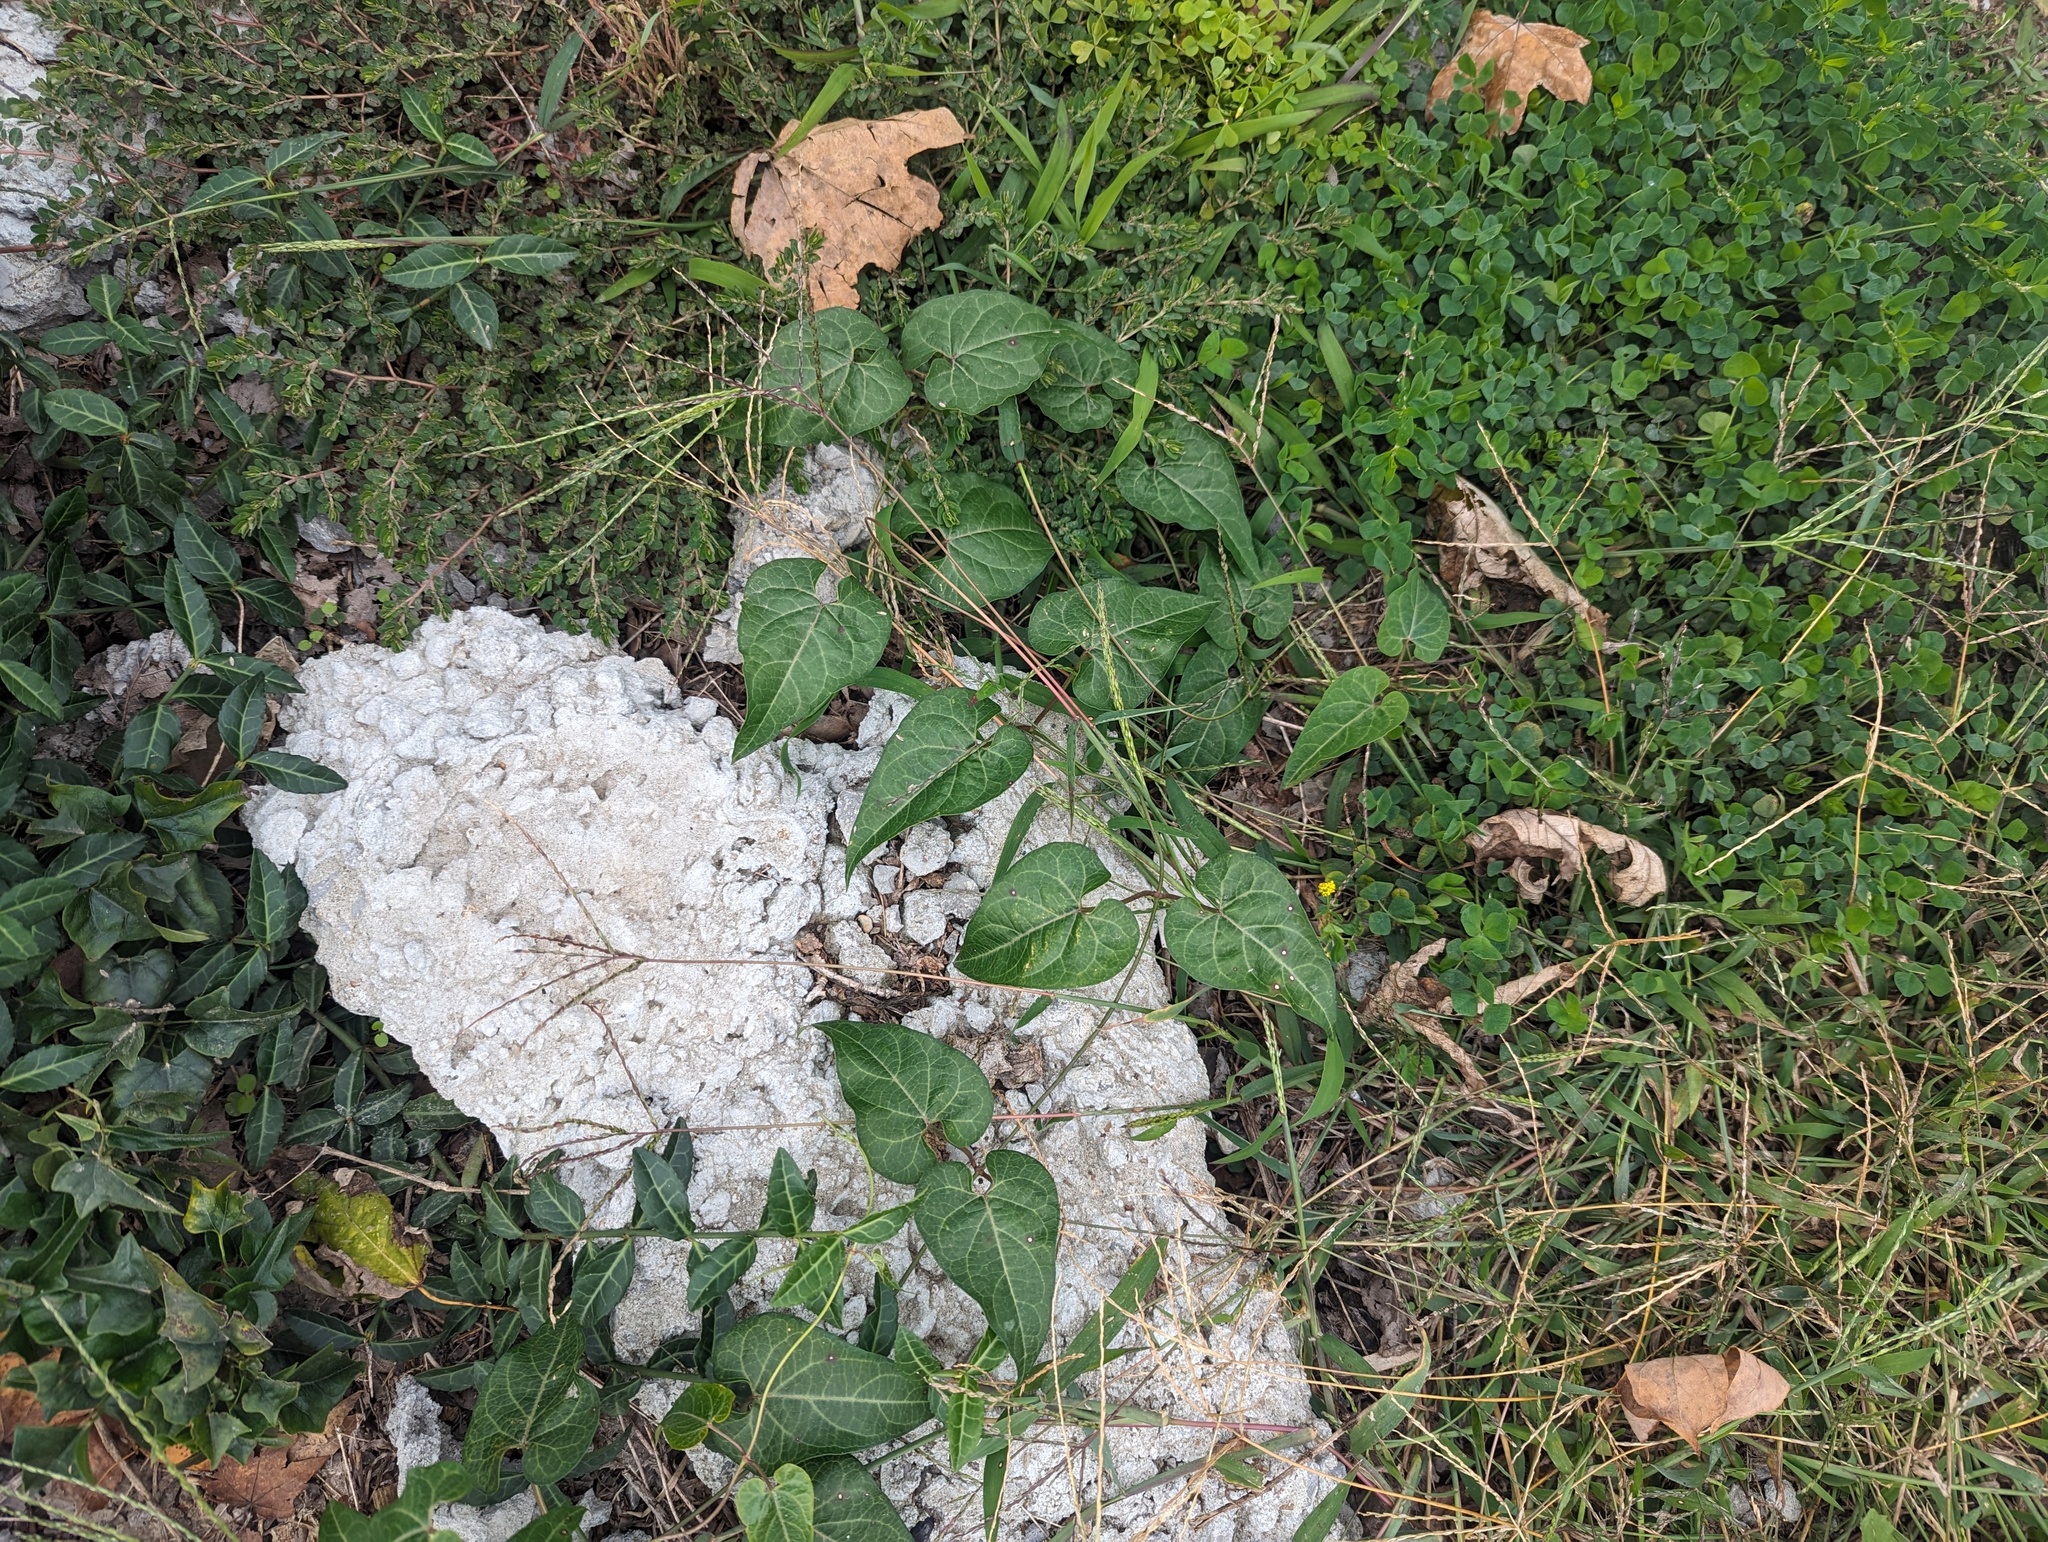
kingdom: Plantae
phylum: Tracheophyta
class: Magnoliopsida
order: Gentianales
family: Apocynaceae
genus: Cynanchum
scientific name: Cynanchum laeve
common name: Sandvine
